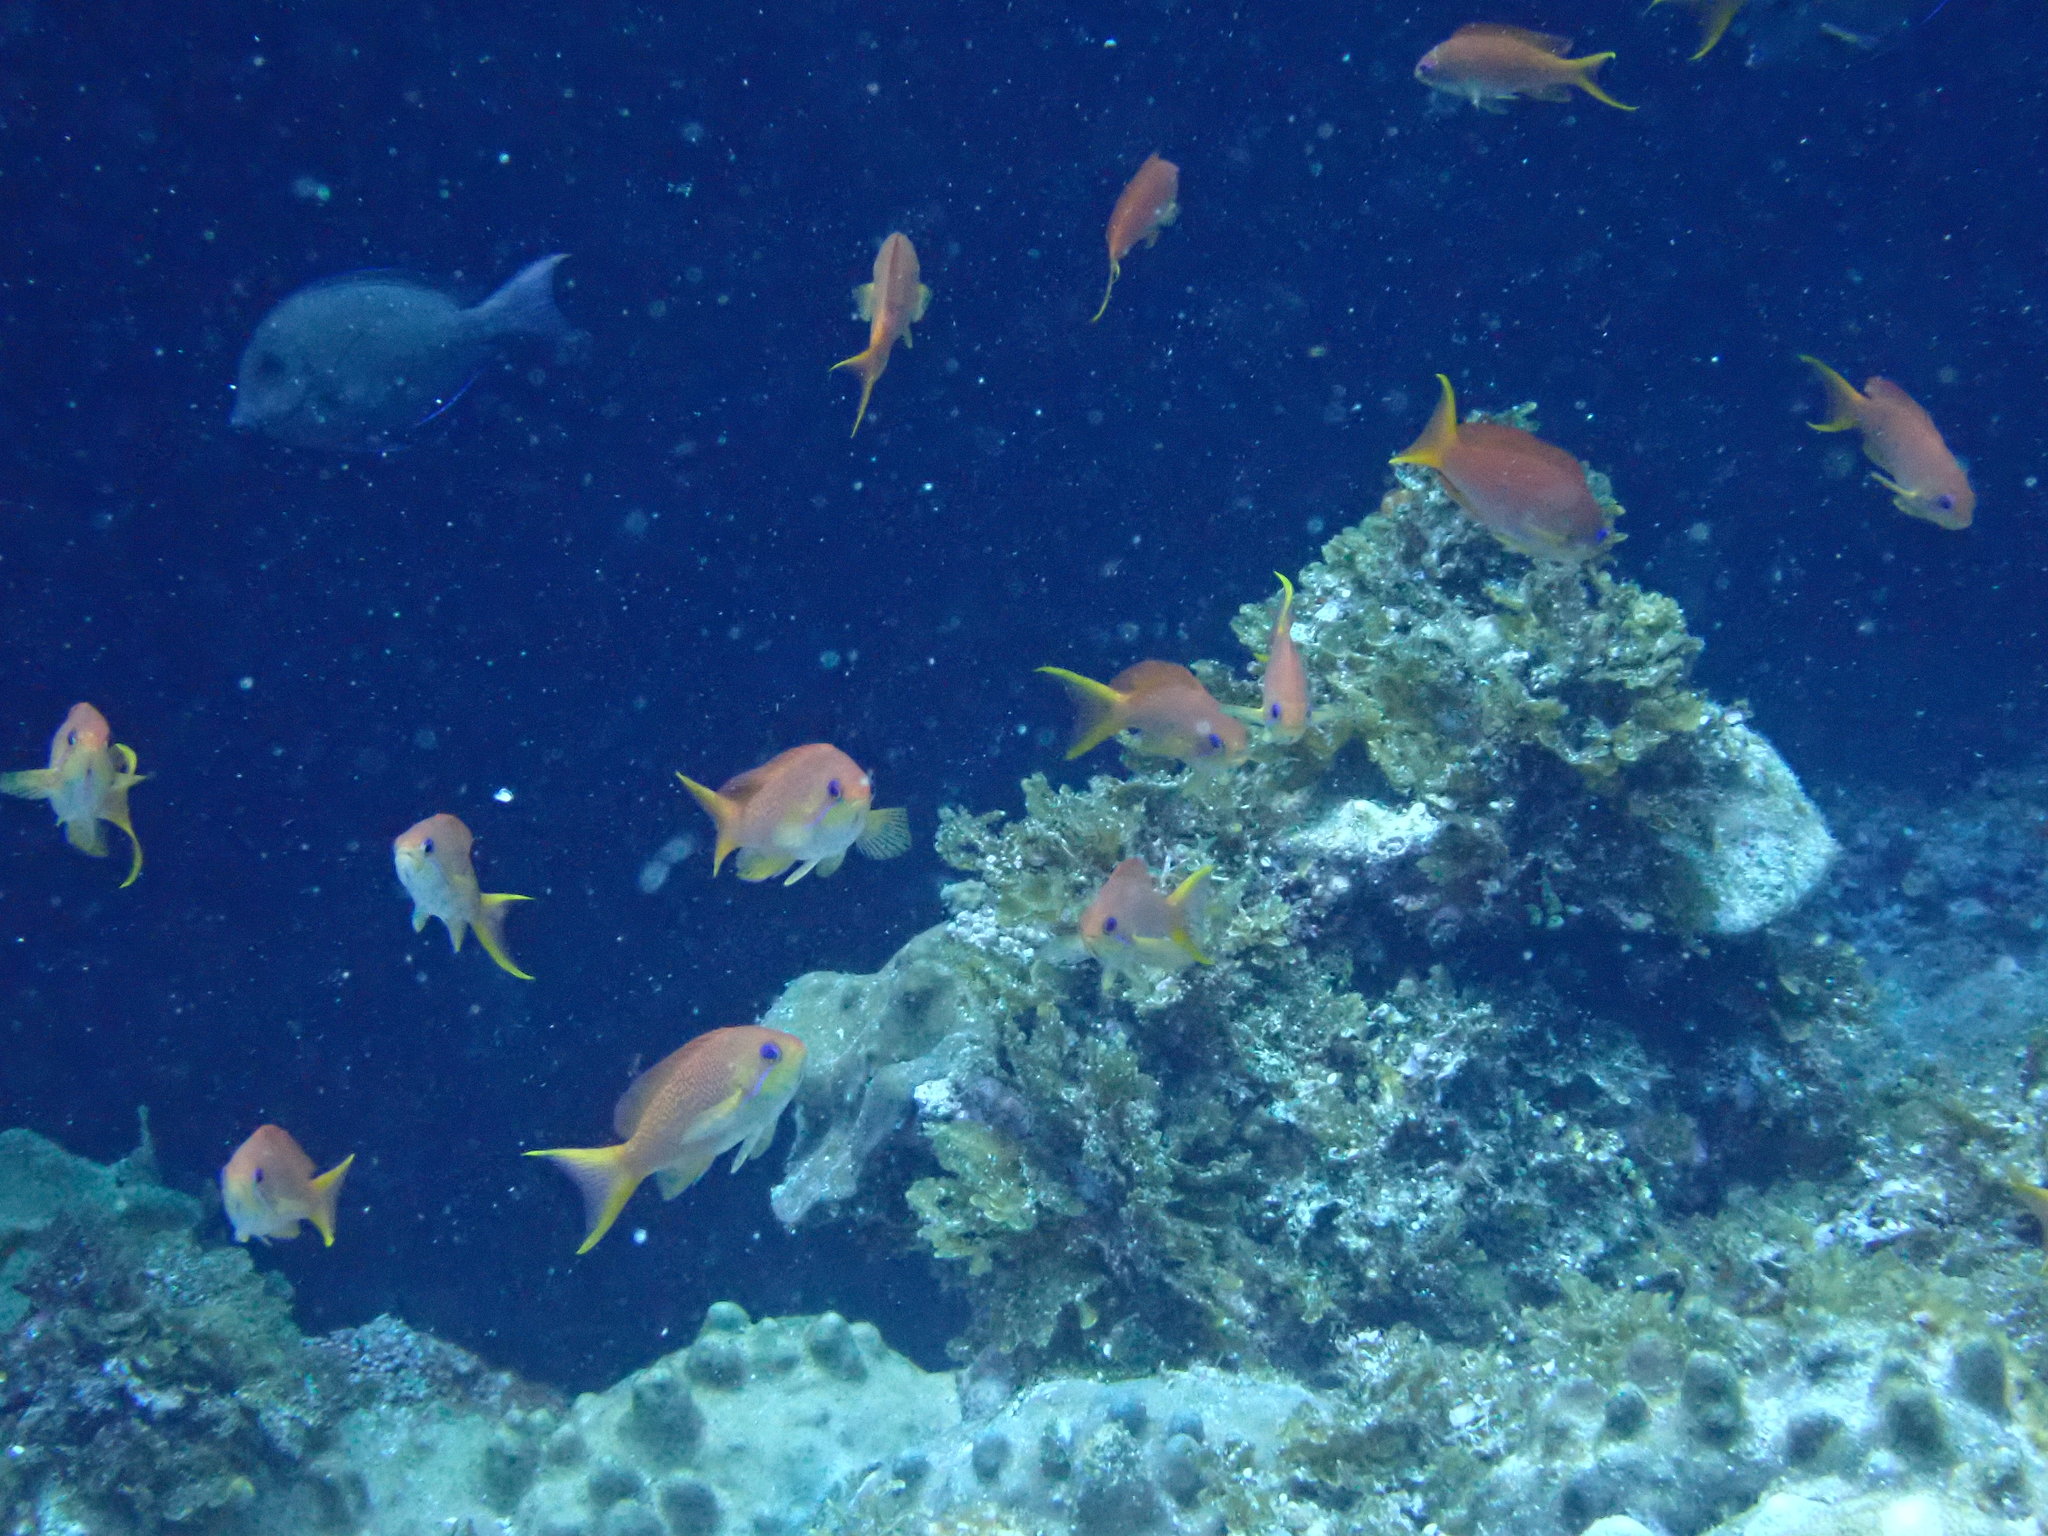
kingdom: Animalia
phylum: Chordata
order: Perciformes
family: Serranidae
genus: Pseudanthias
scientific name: Pseudanthias squamipinnis
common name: Scalefin anthias
